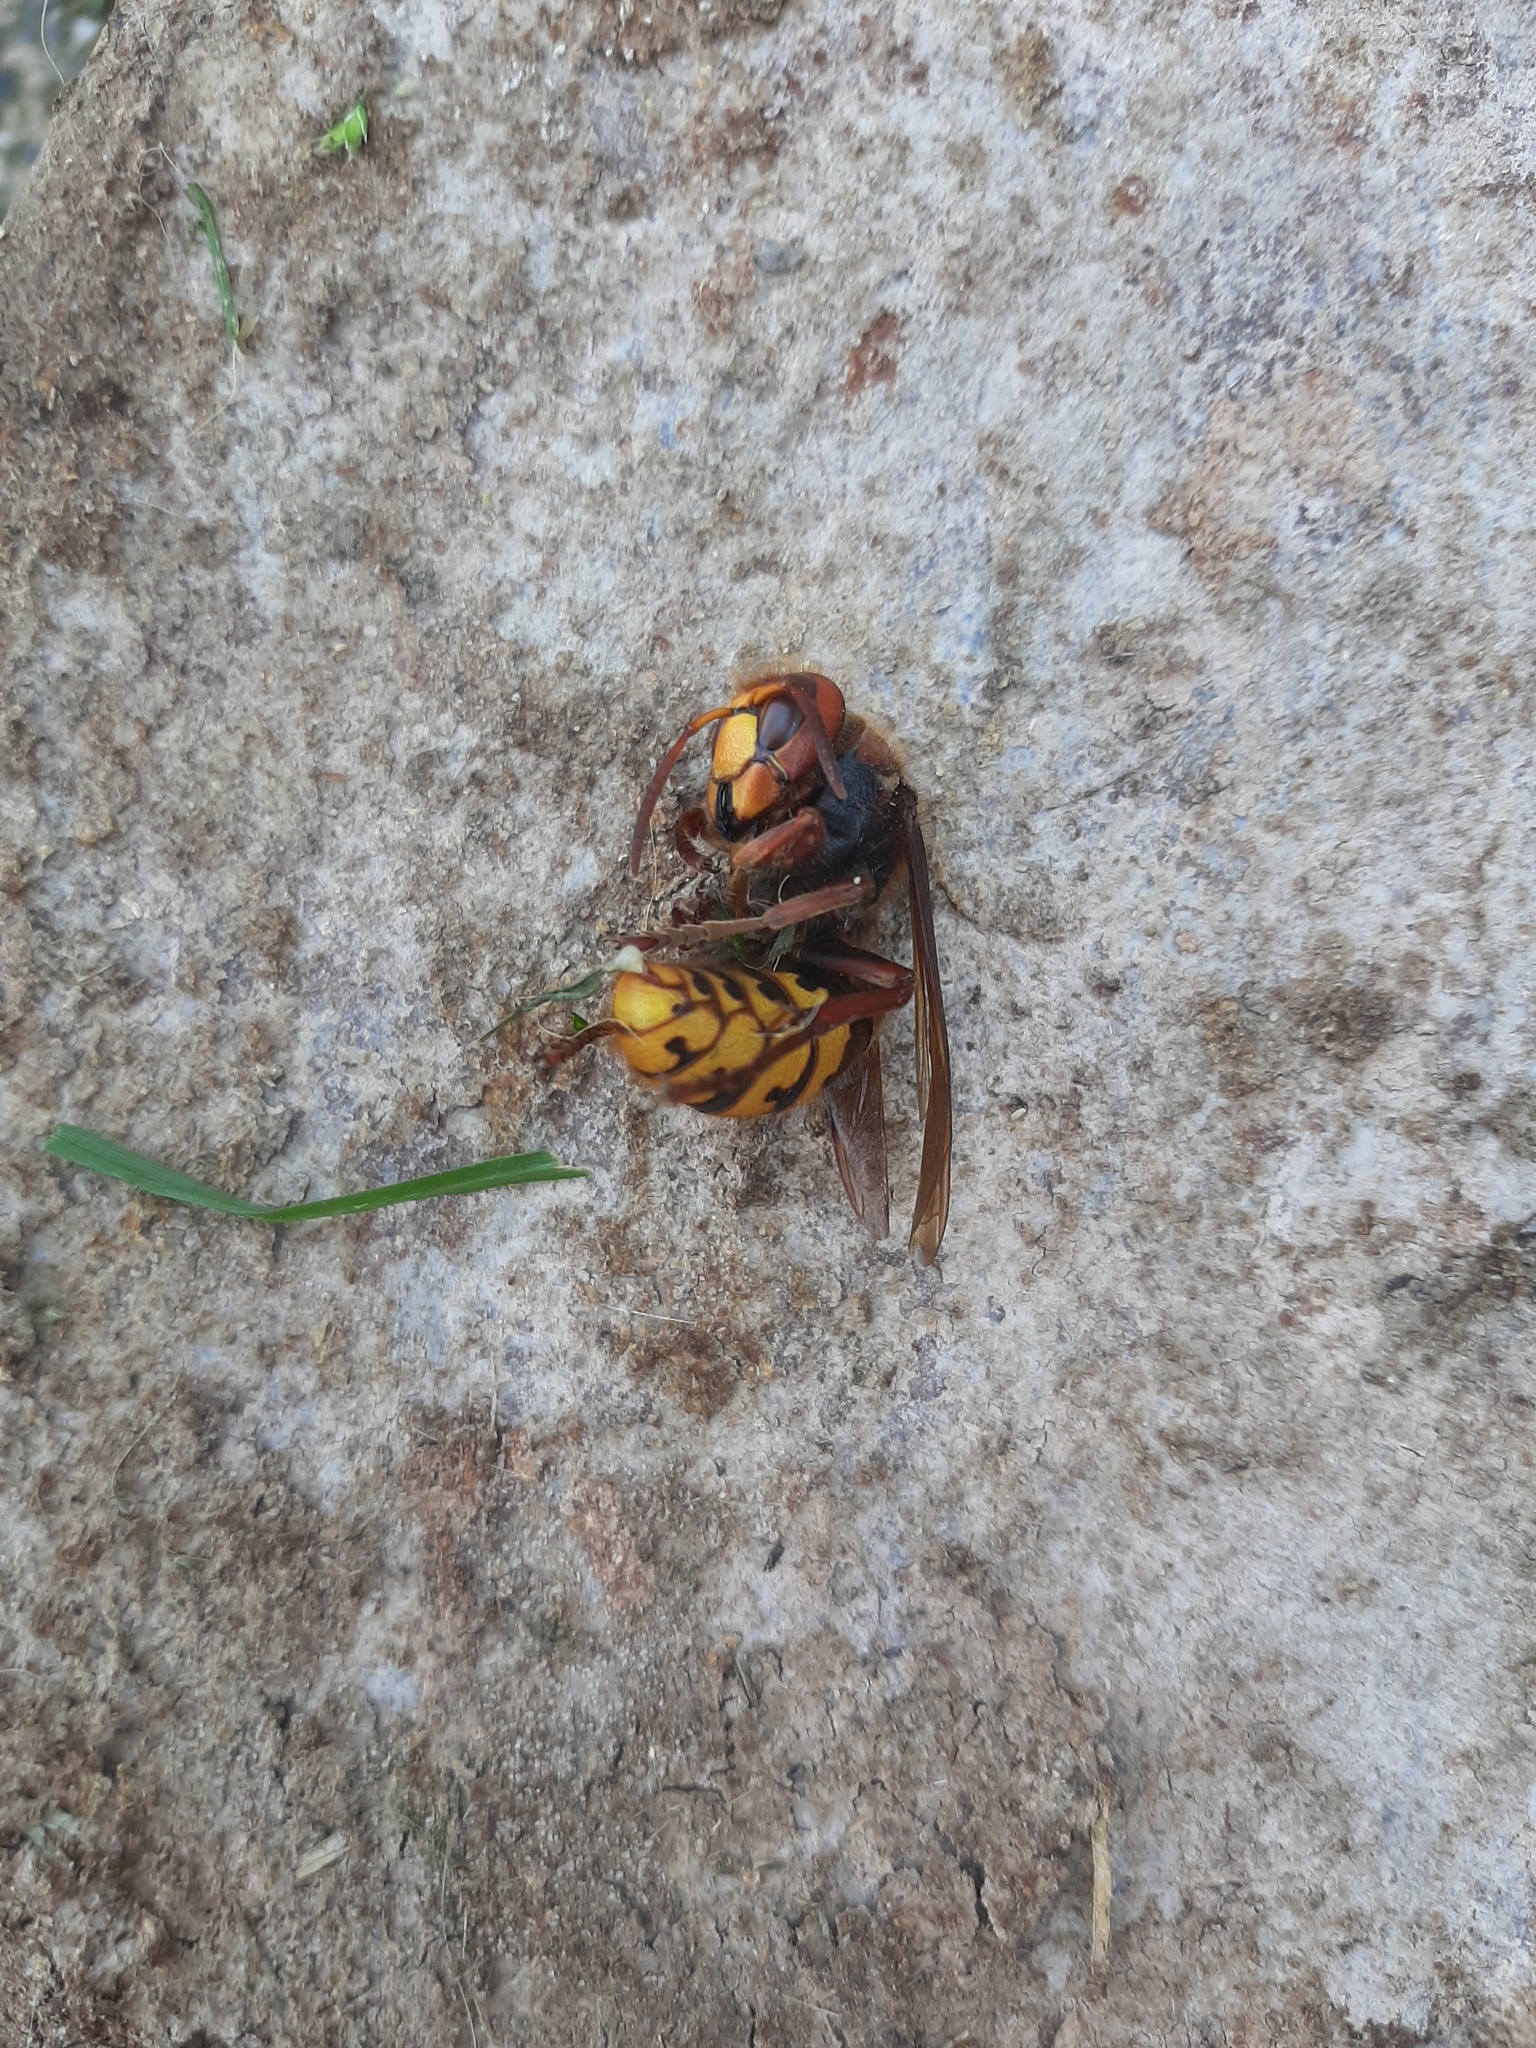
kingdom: Animalia
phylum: Arthropoda
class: Insecta
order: Hymenoptera
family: Vespidae
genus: Vespa
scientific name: Vespa crabro
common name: Hornet
